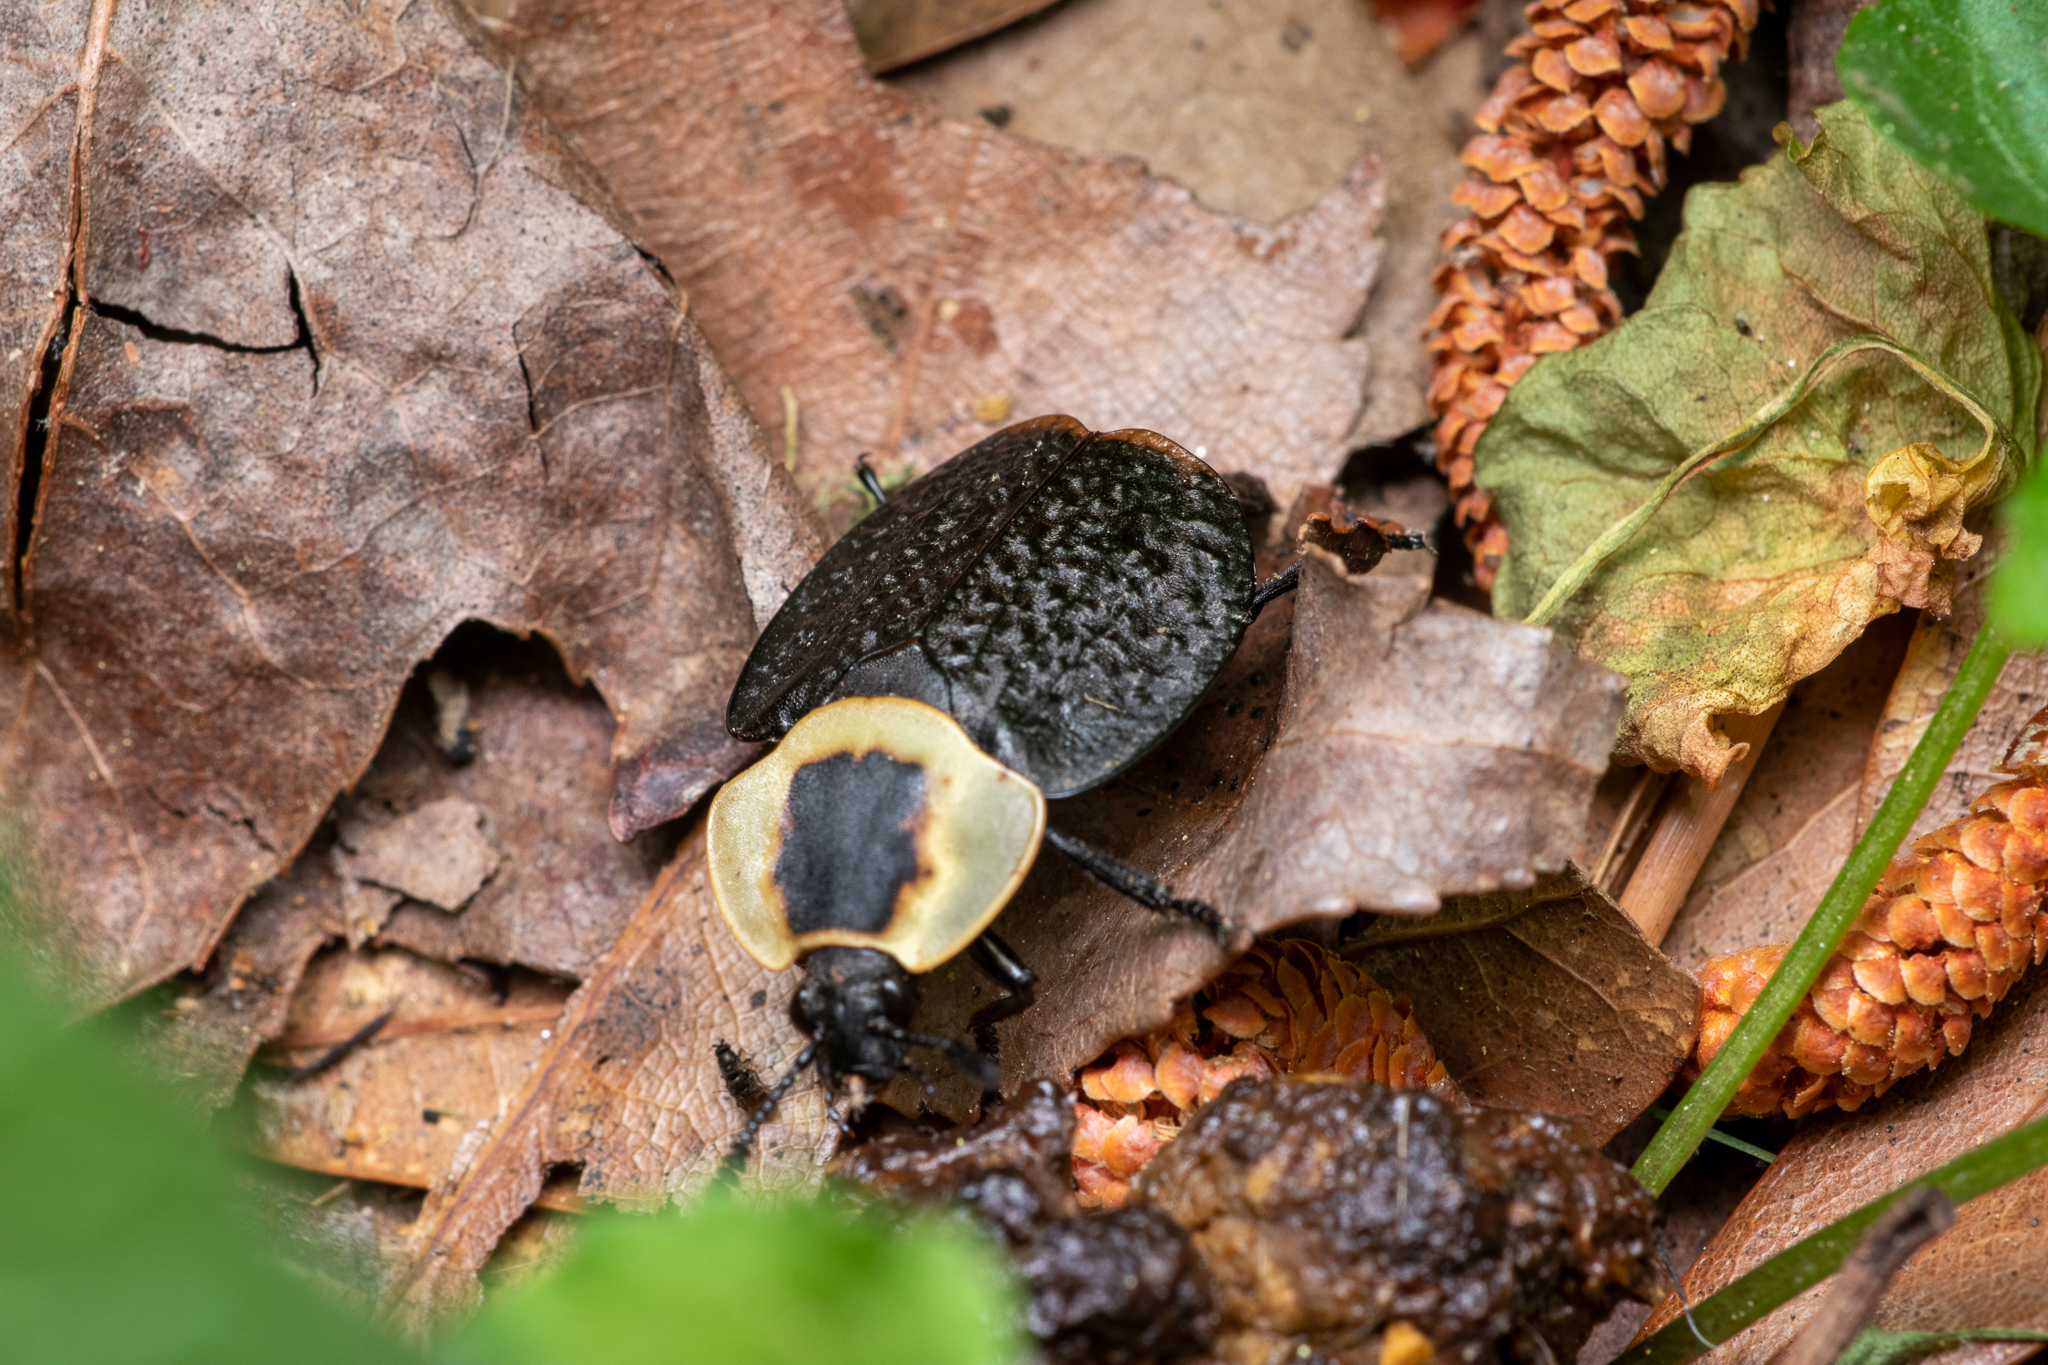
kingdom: Animalia
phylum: Arthropoda
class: Insecta
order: Coleoptera
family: Staphylinidae
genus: Necrophila
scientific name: Necrophila americana
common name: American carrion beetle
